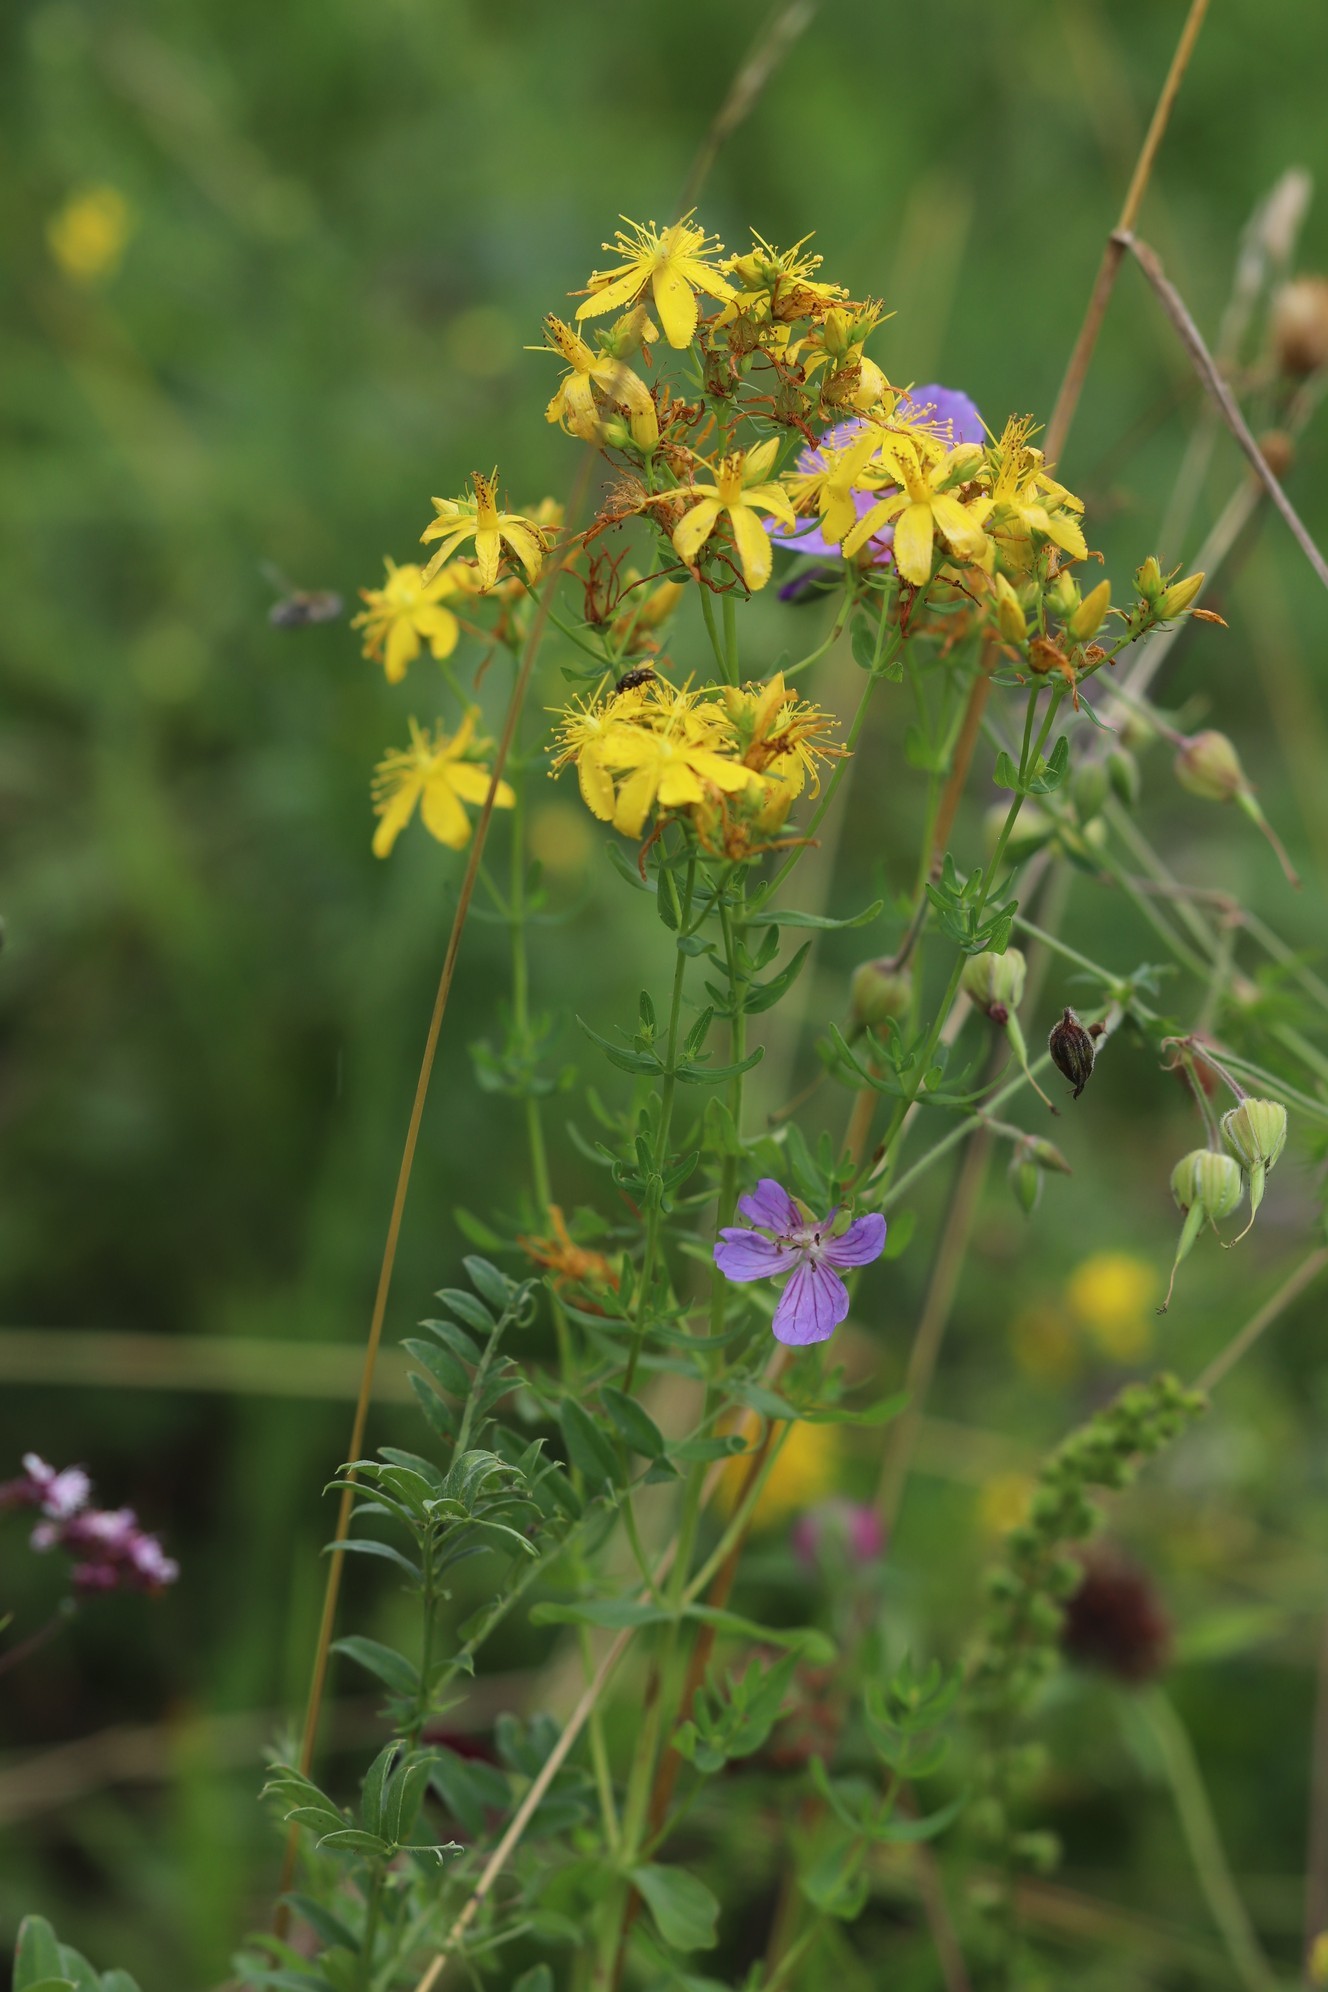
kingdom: Plantae
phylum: Tracheophyta
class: Magnoliopsida
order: Malpighiales
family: Hypericaceae
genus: Hypericum
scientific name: Hypericum perforatum
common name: Common st. johnswort
